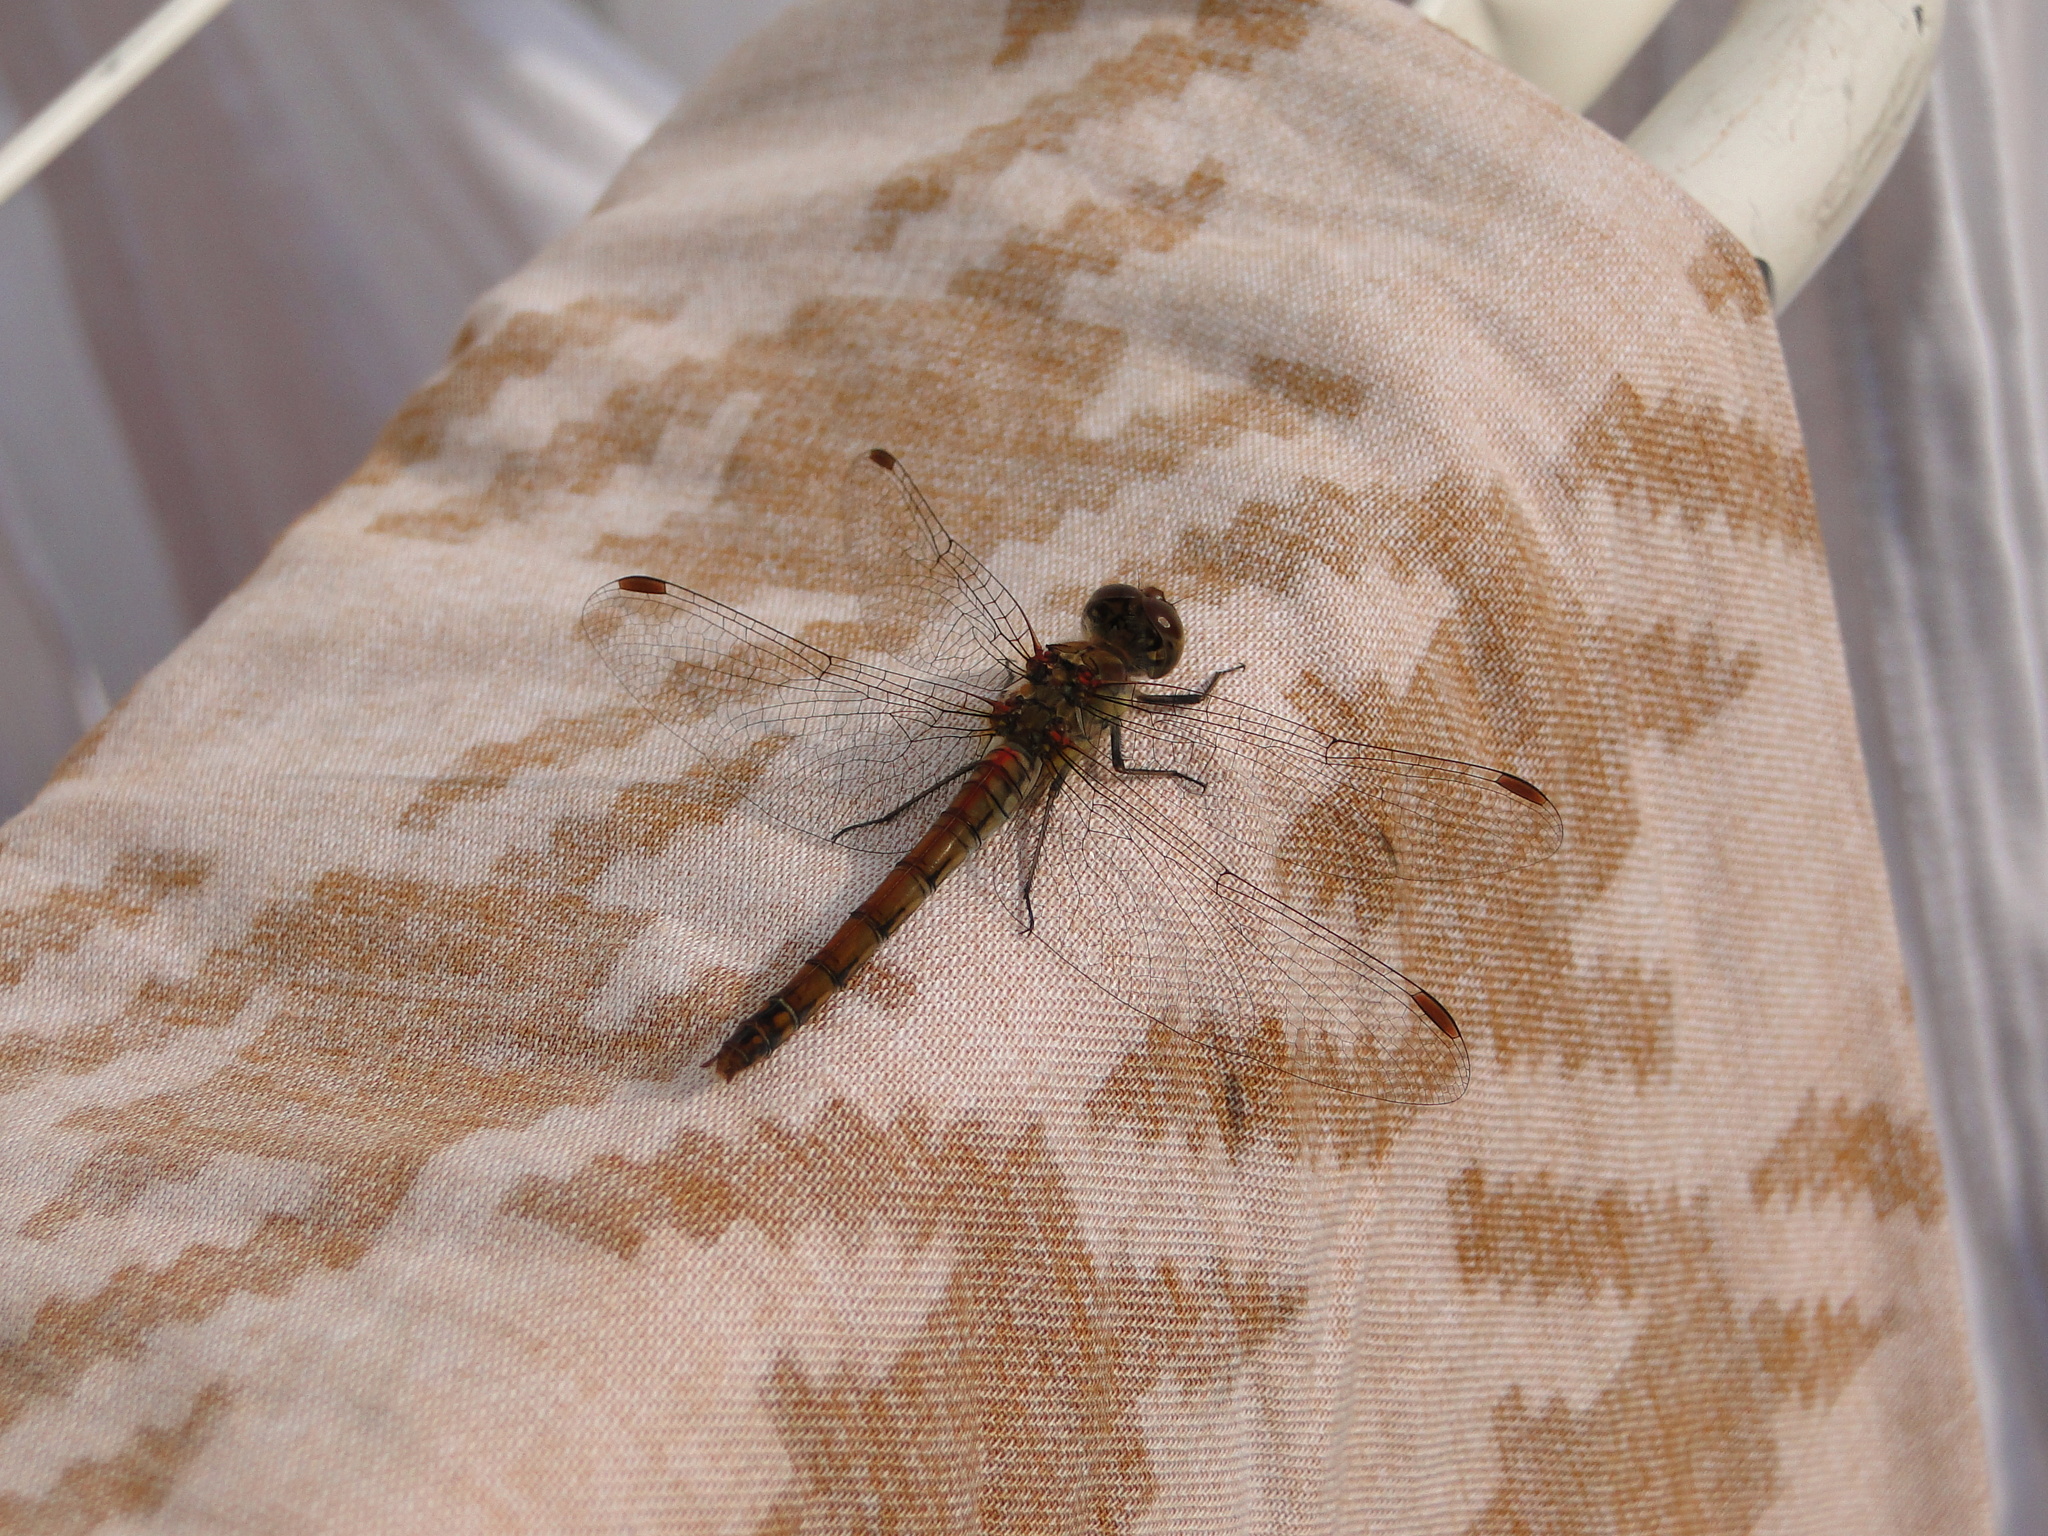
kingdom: Animalia
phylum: Arthropoda
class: Insecta
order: Odonata
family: Libellulidae
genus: Sympetrum
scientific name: Sympetrum striolatum
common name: Common darter
